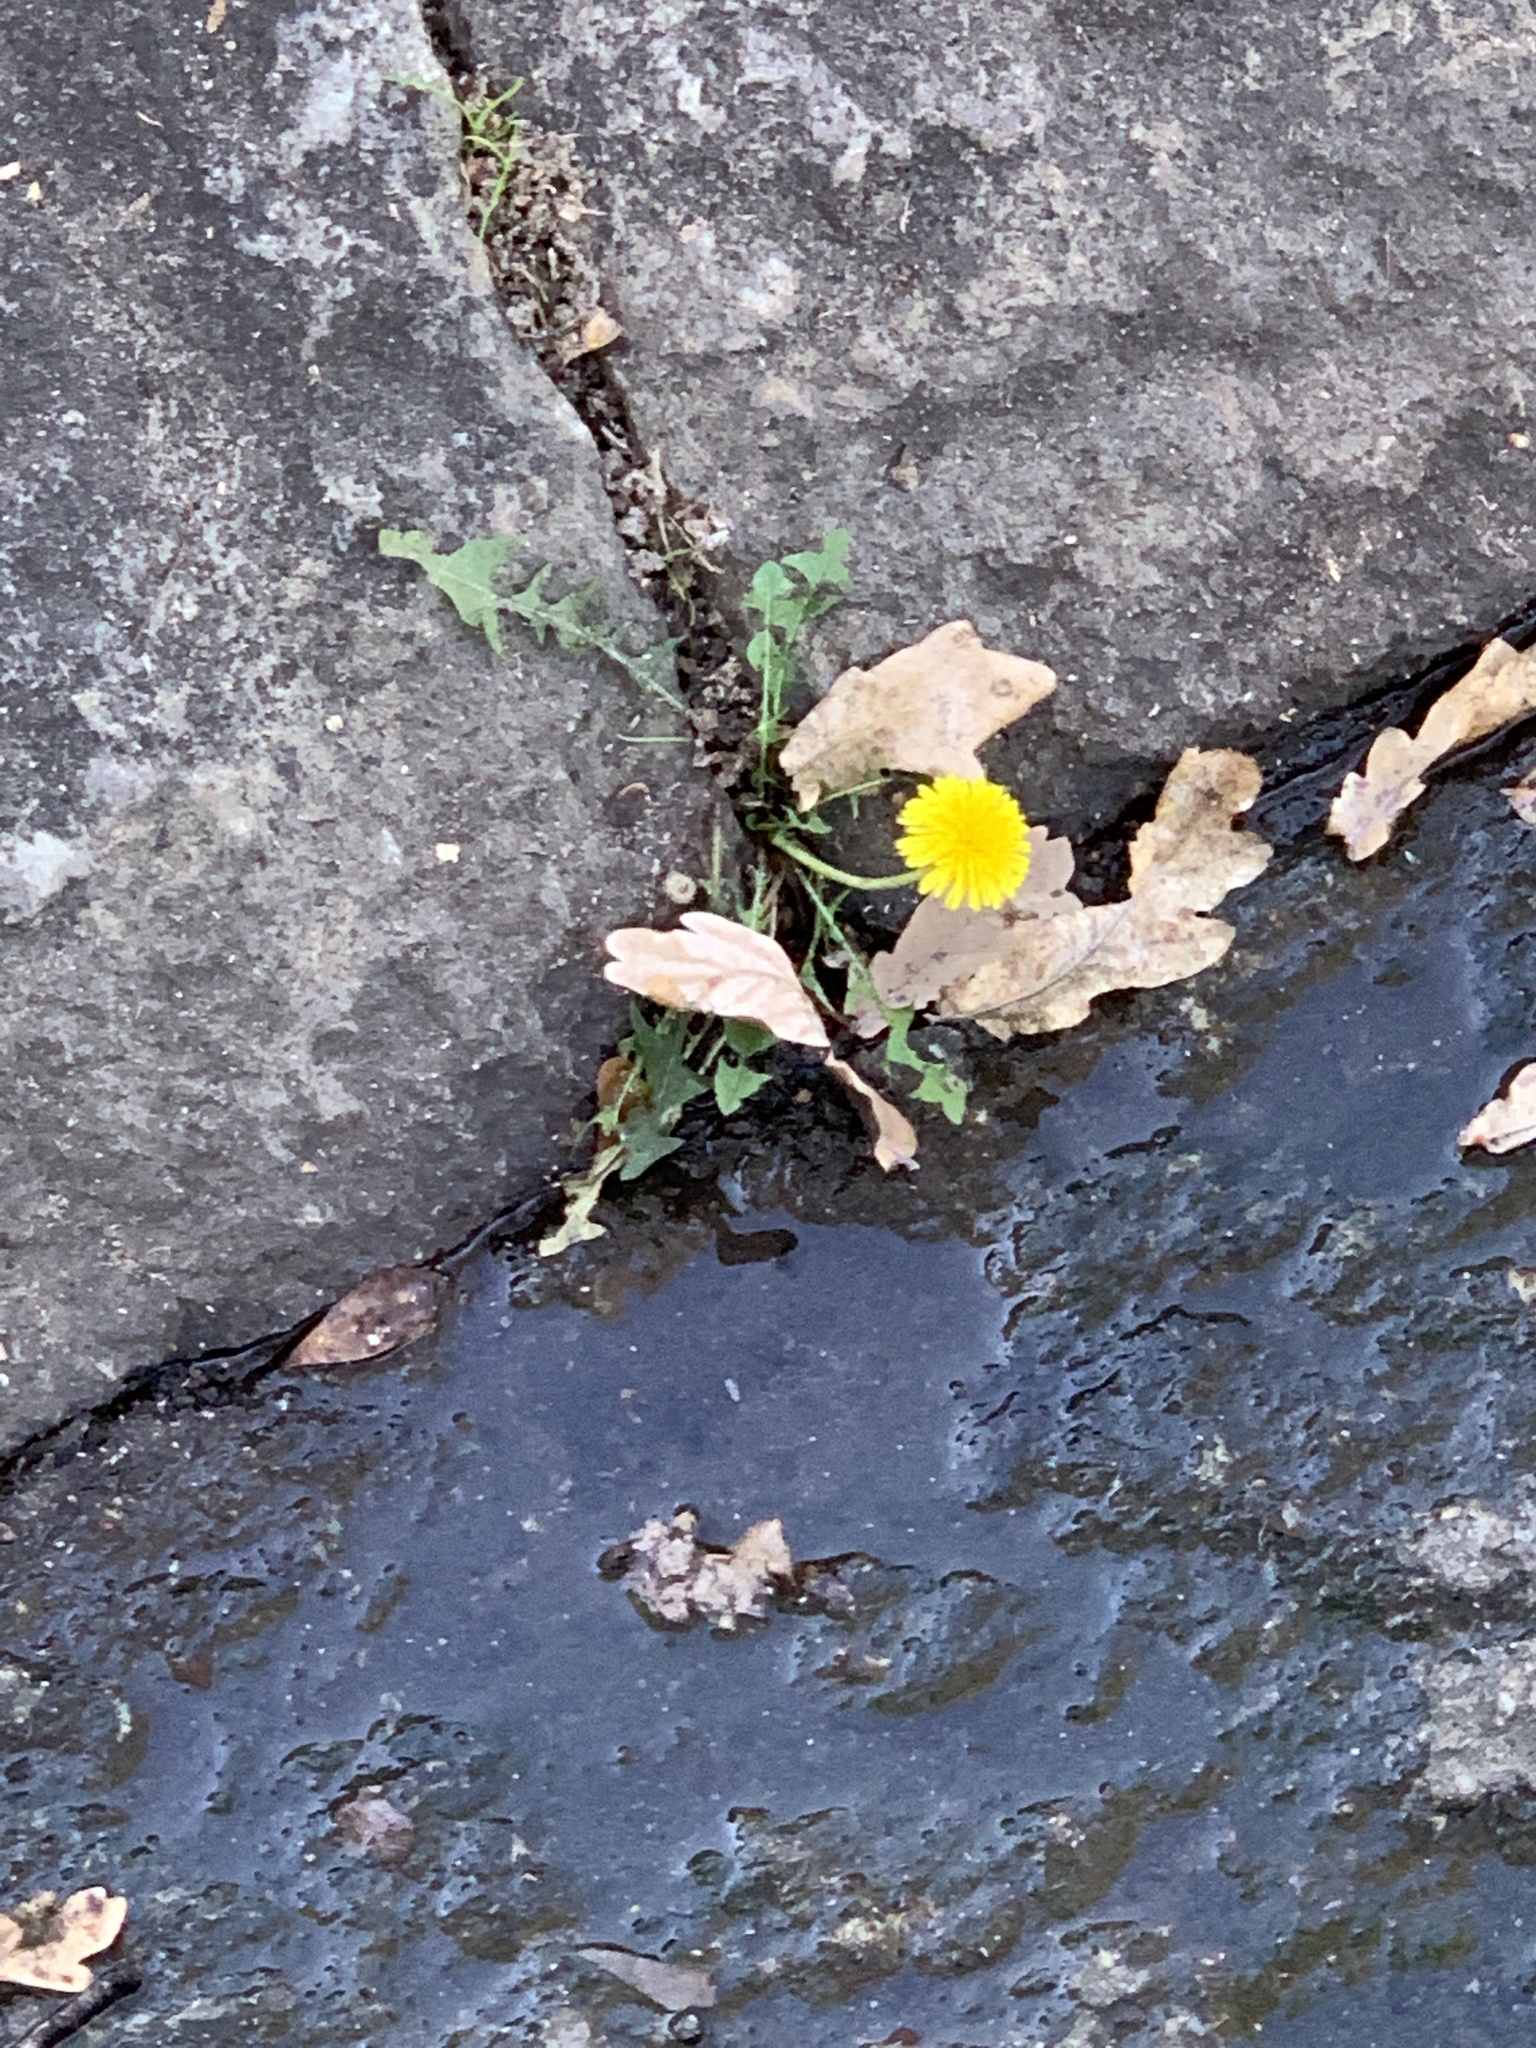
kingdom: Plantae
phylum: Tracheophyta
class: Magnoliopsida
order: Asterales
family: Asteraceae
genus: Taraxacum
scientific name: Taraxacum officinale
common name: Common dandelion
